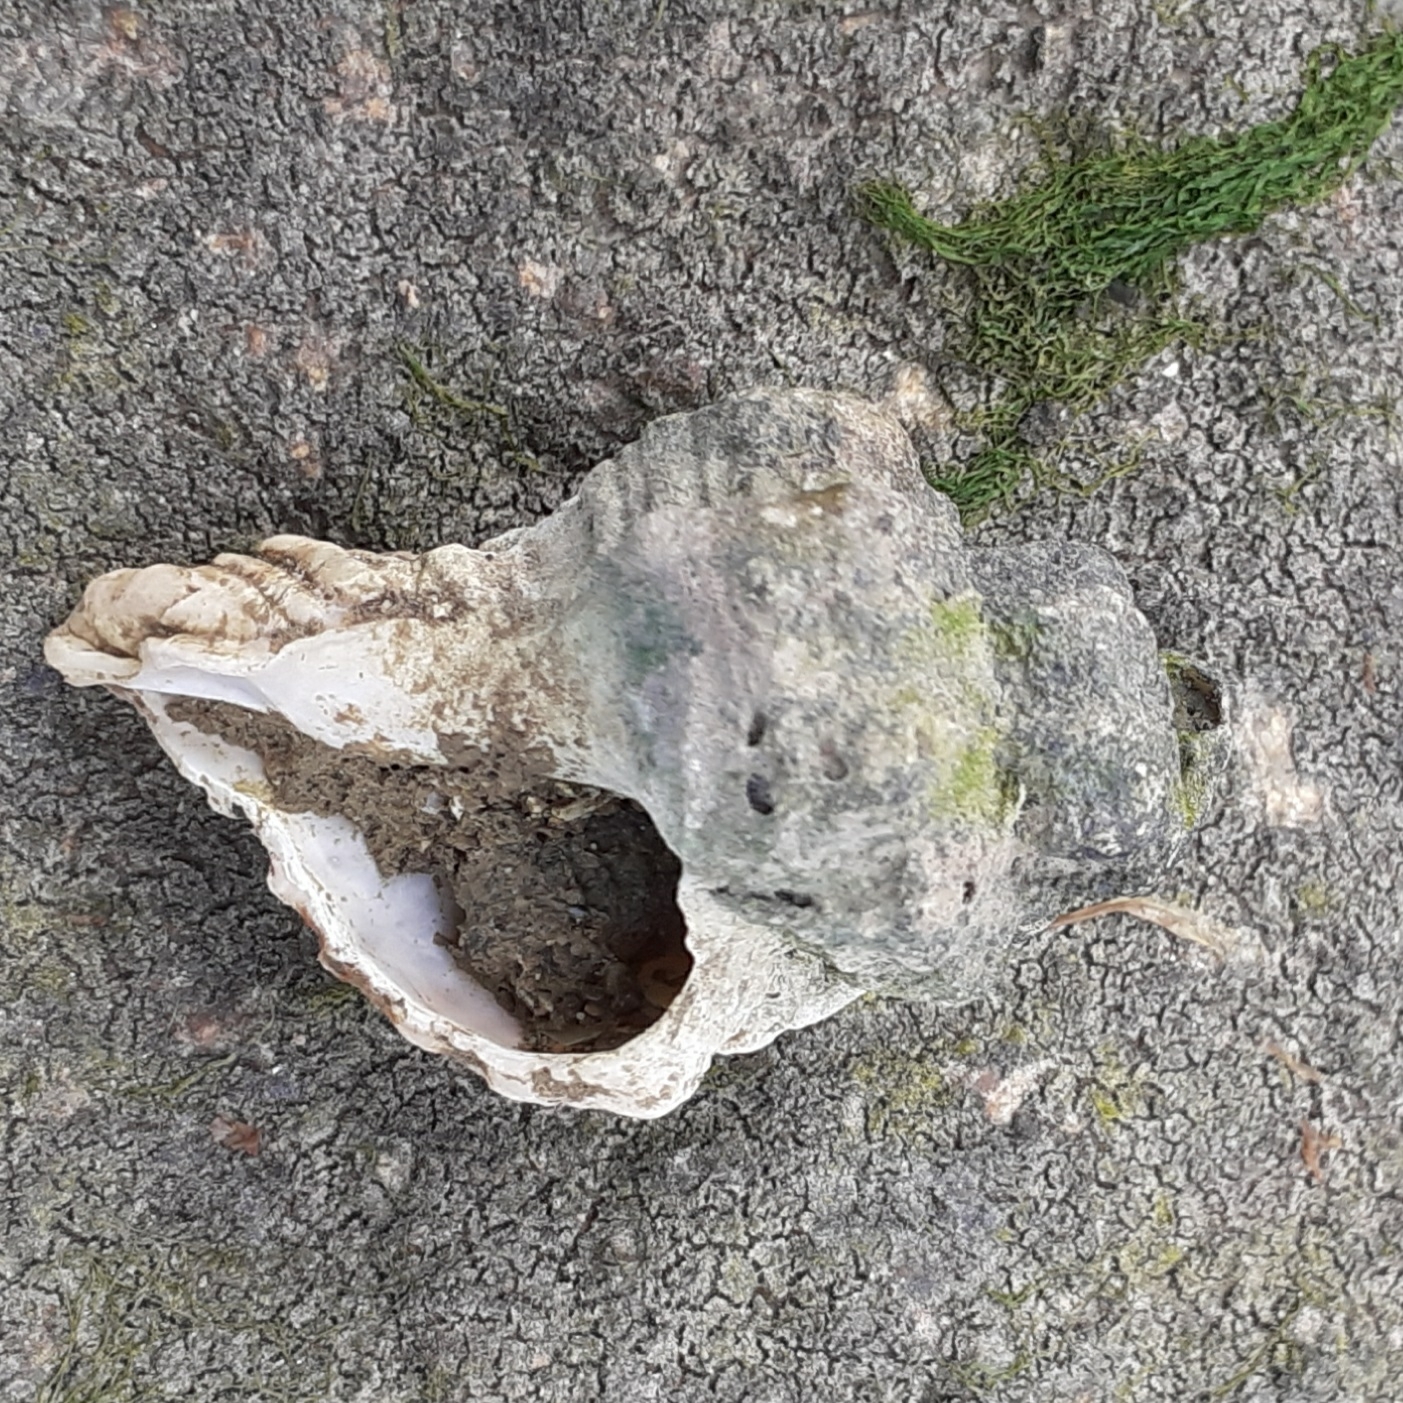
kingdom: Animalia
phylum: Mollusca
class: Gastropoda
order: Neogastropoda
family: Muricidae
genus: Ocenebra
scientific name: Ocenebra erinaceus
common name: European sting winkle
